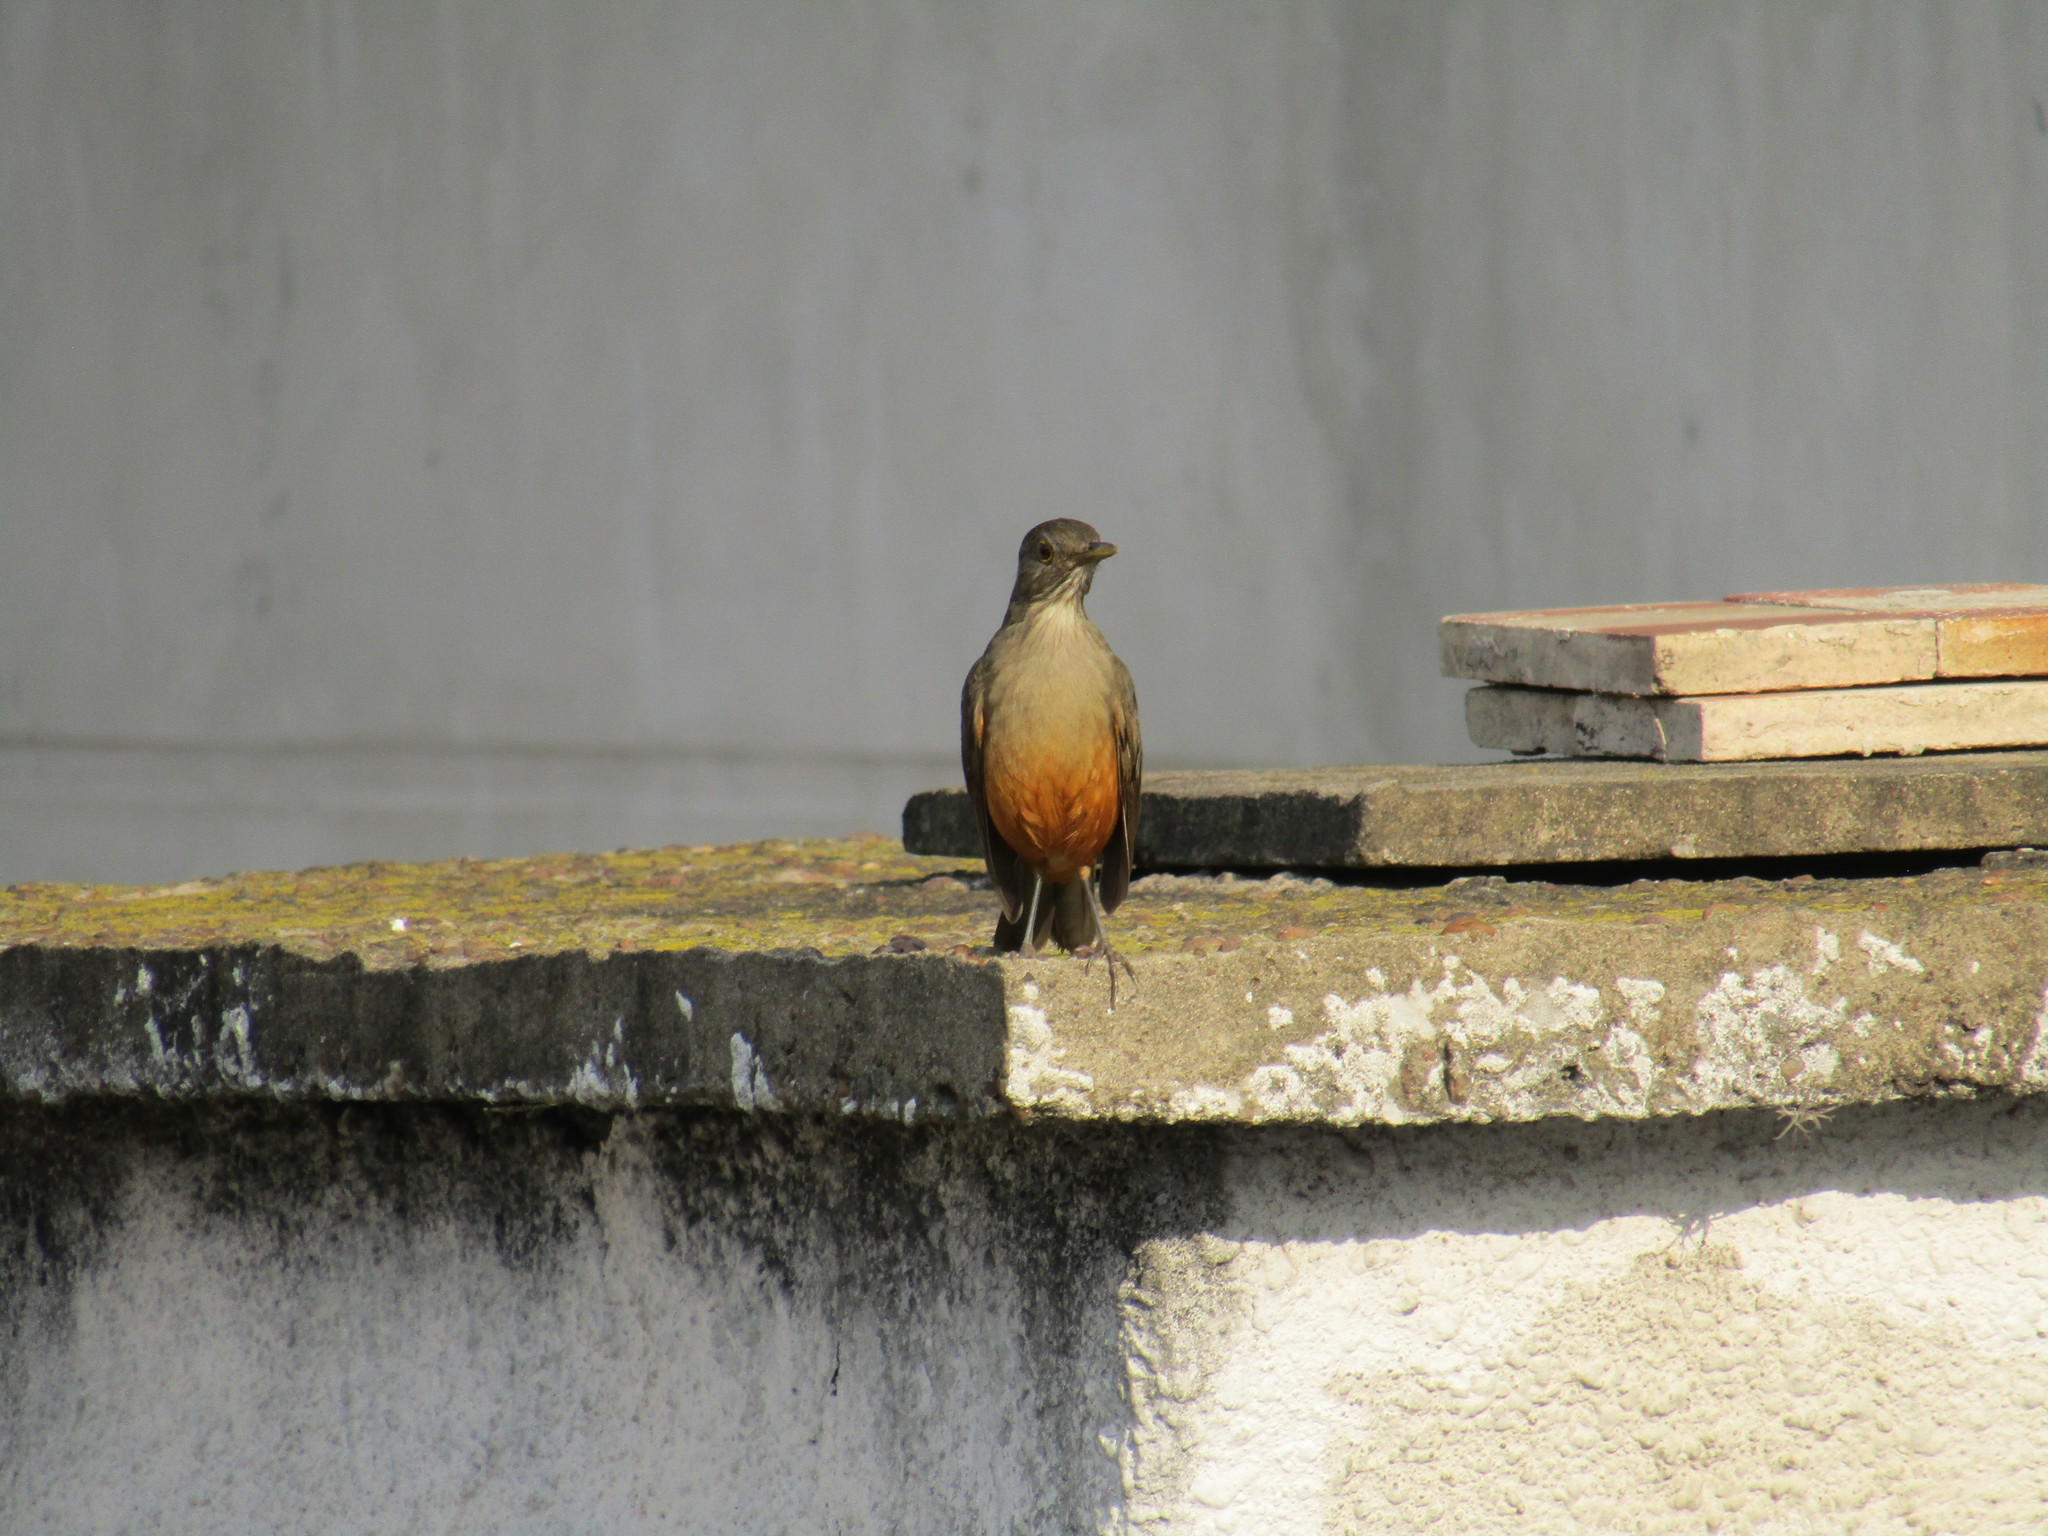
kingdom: Animalia
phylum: Chordata
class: Aves
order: Passeriformes
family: Turdidae
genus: Turdus
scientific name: Turdus rufiventris
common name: Rufous-bellied thrush
